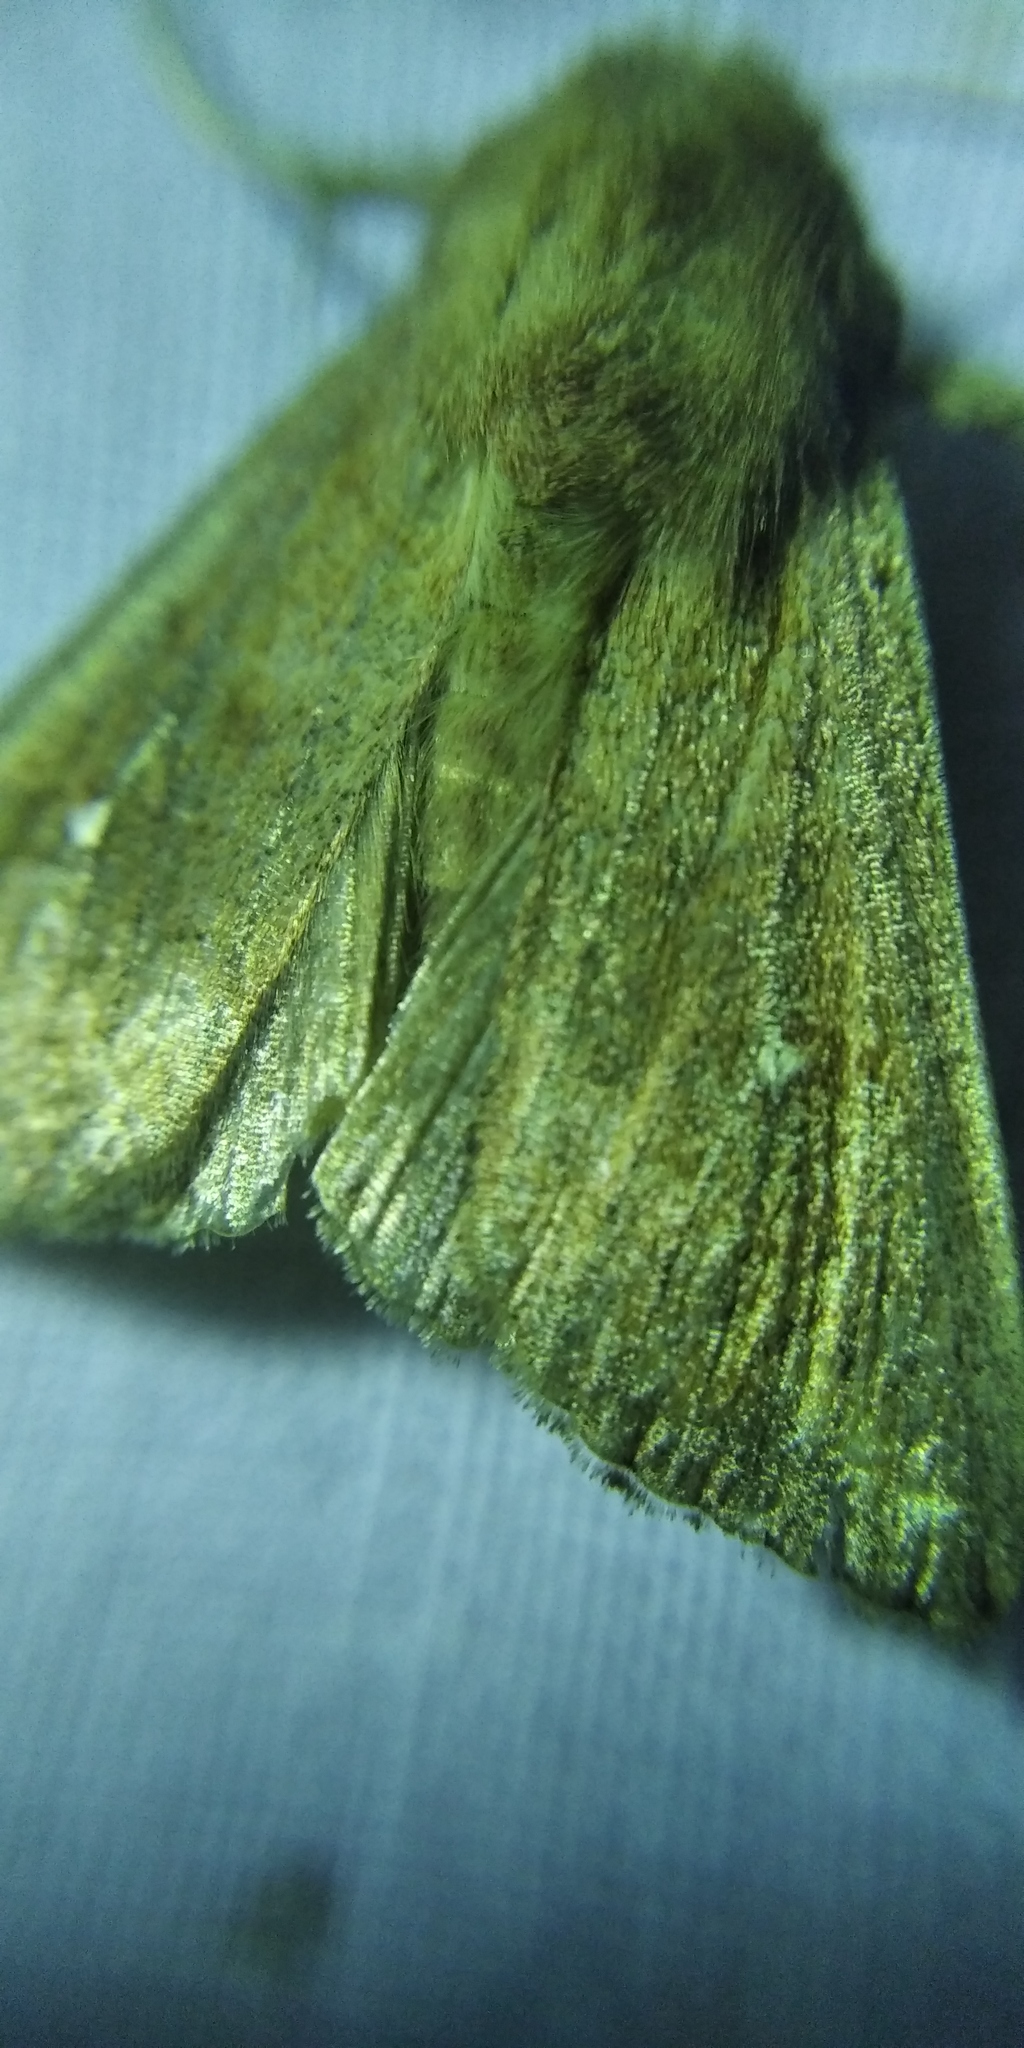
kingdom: Animalia
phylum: Arthropoda
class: Insecta
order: Lepidoptera
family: Noctuidae
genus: Mythimna
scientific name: Mythimna albipuncta
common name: White-point
